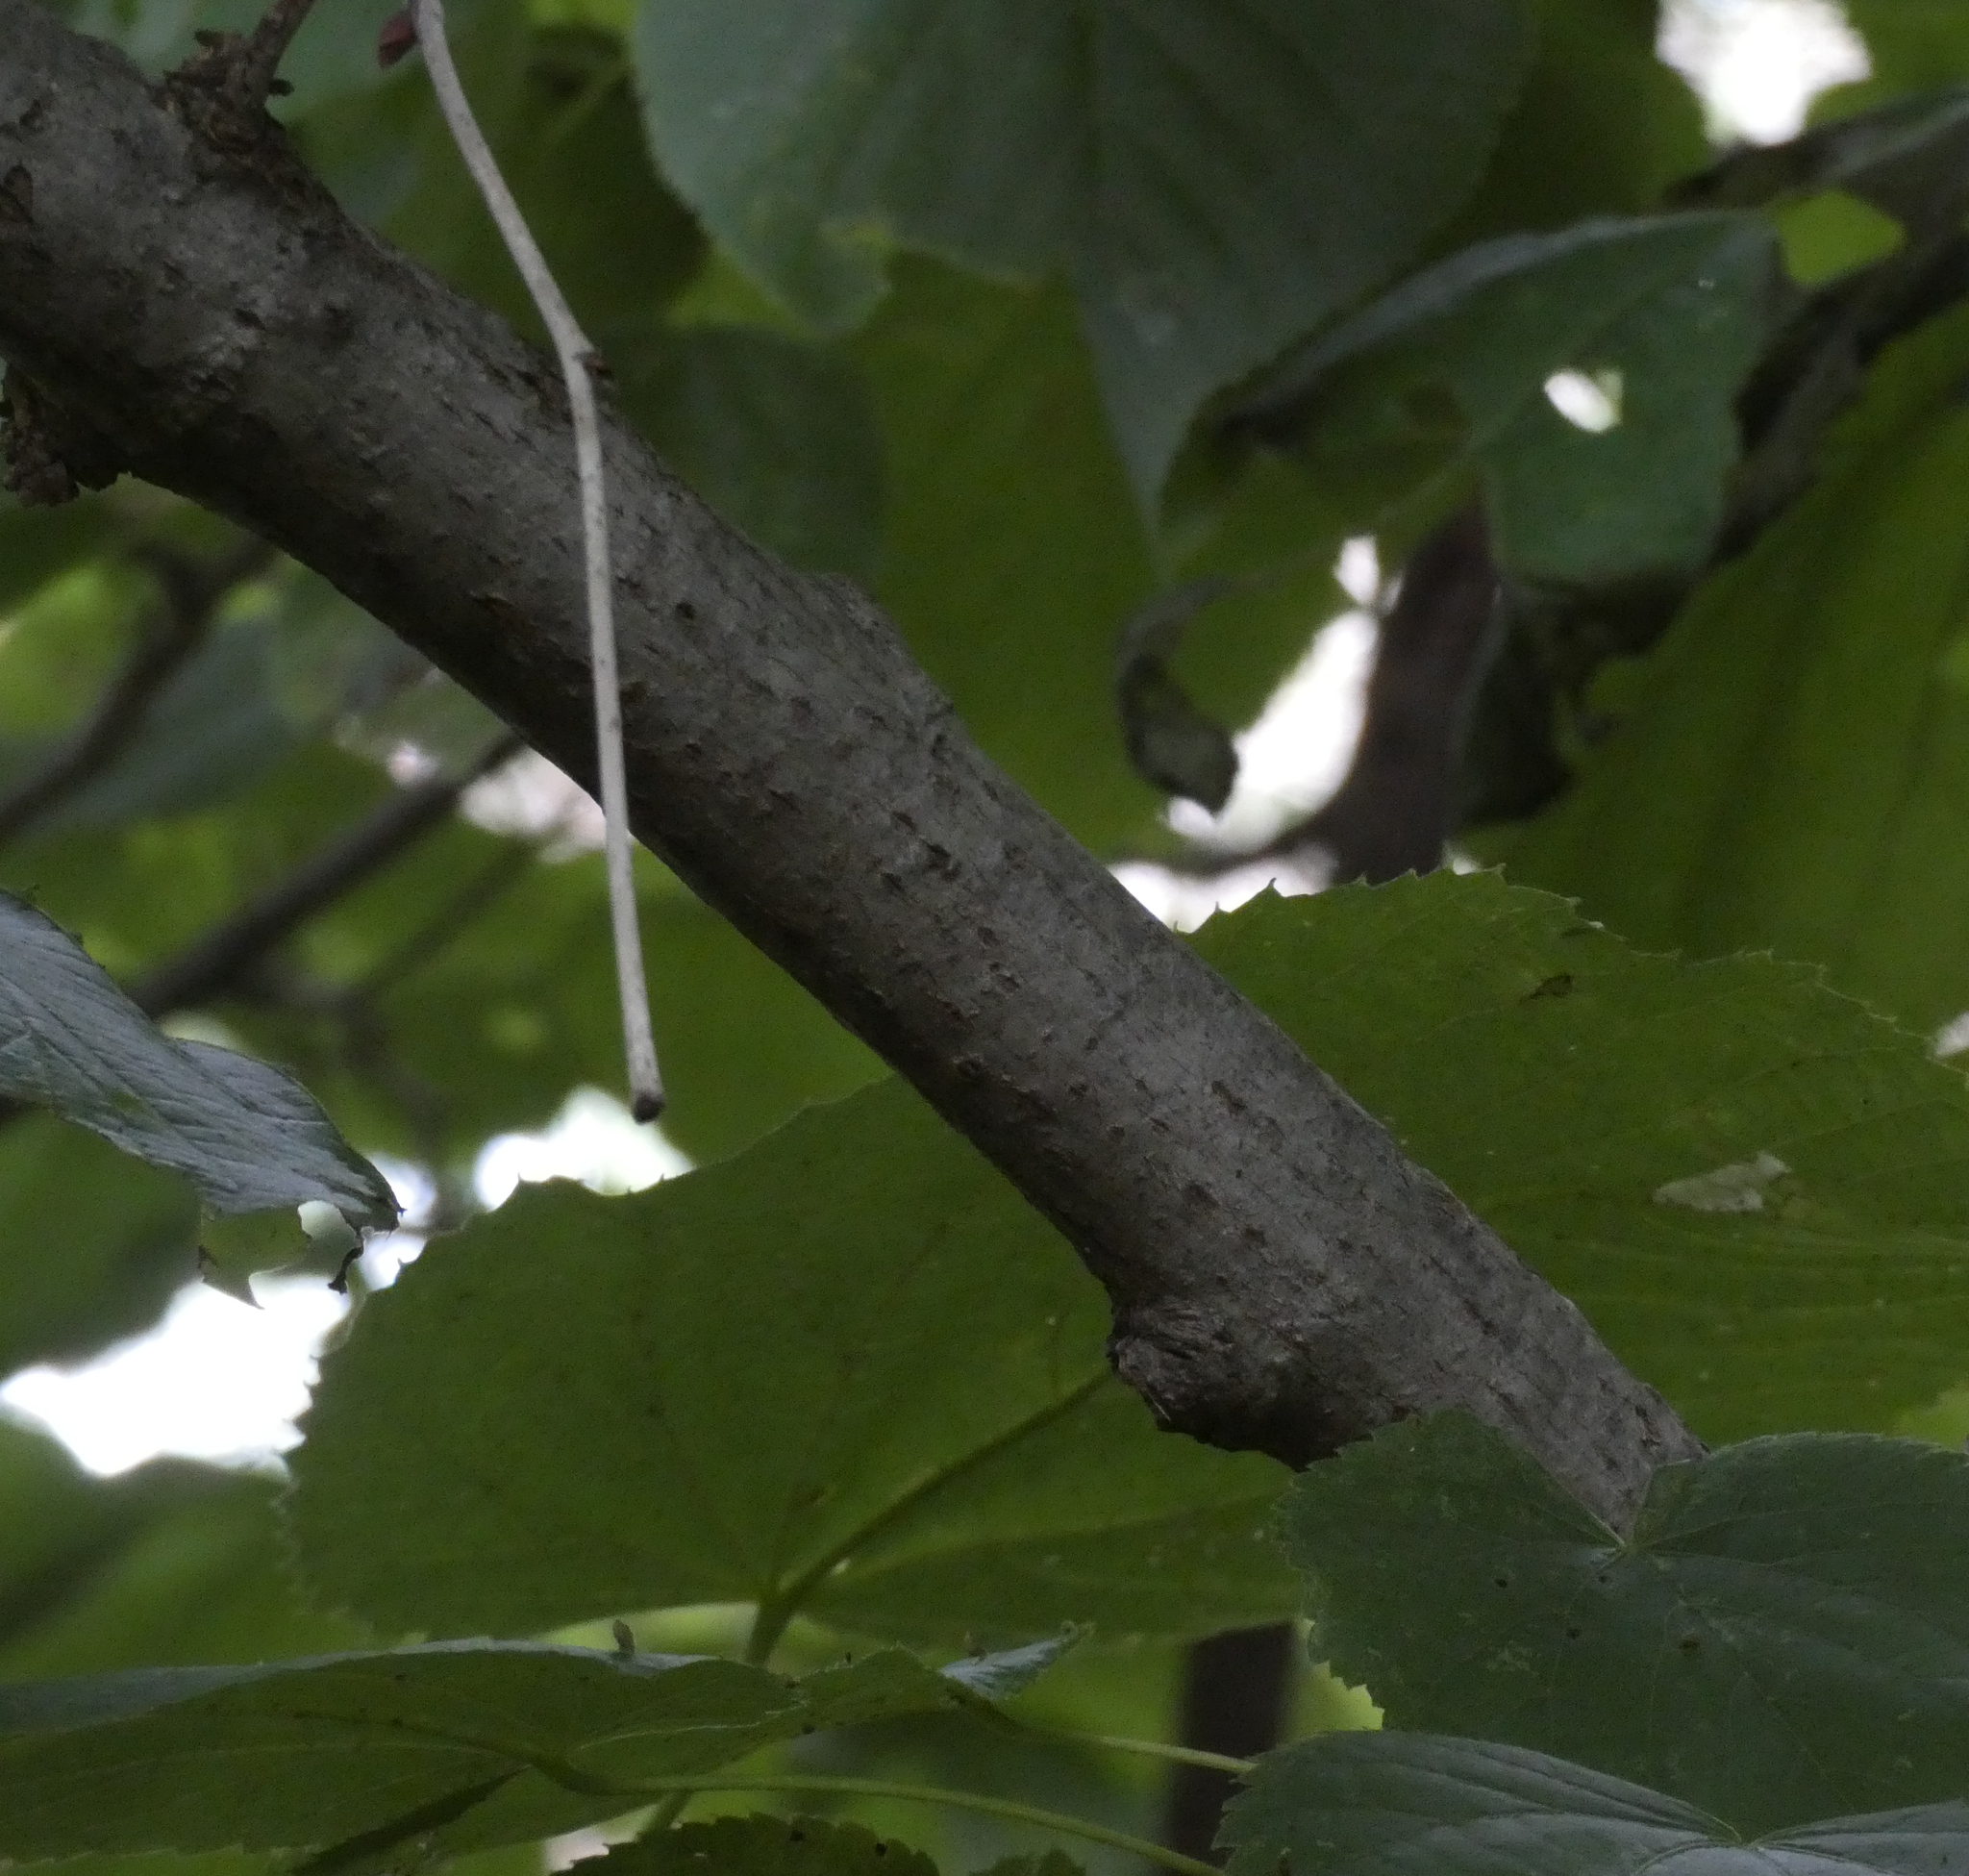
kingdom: Plantae
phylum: Tracheophyta
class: Magnoliopsida
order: Malvales
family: Malvaceae
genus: Tilia
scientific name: Tilia americana
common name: Basswood
